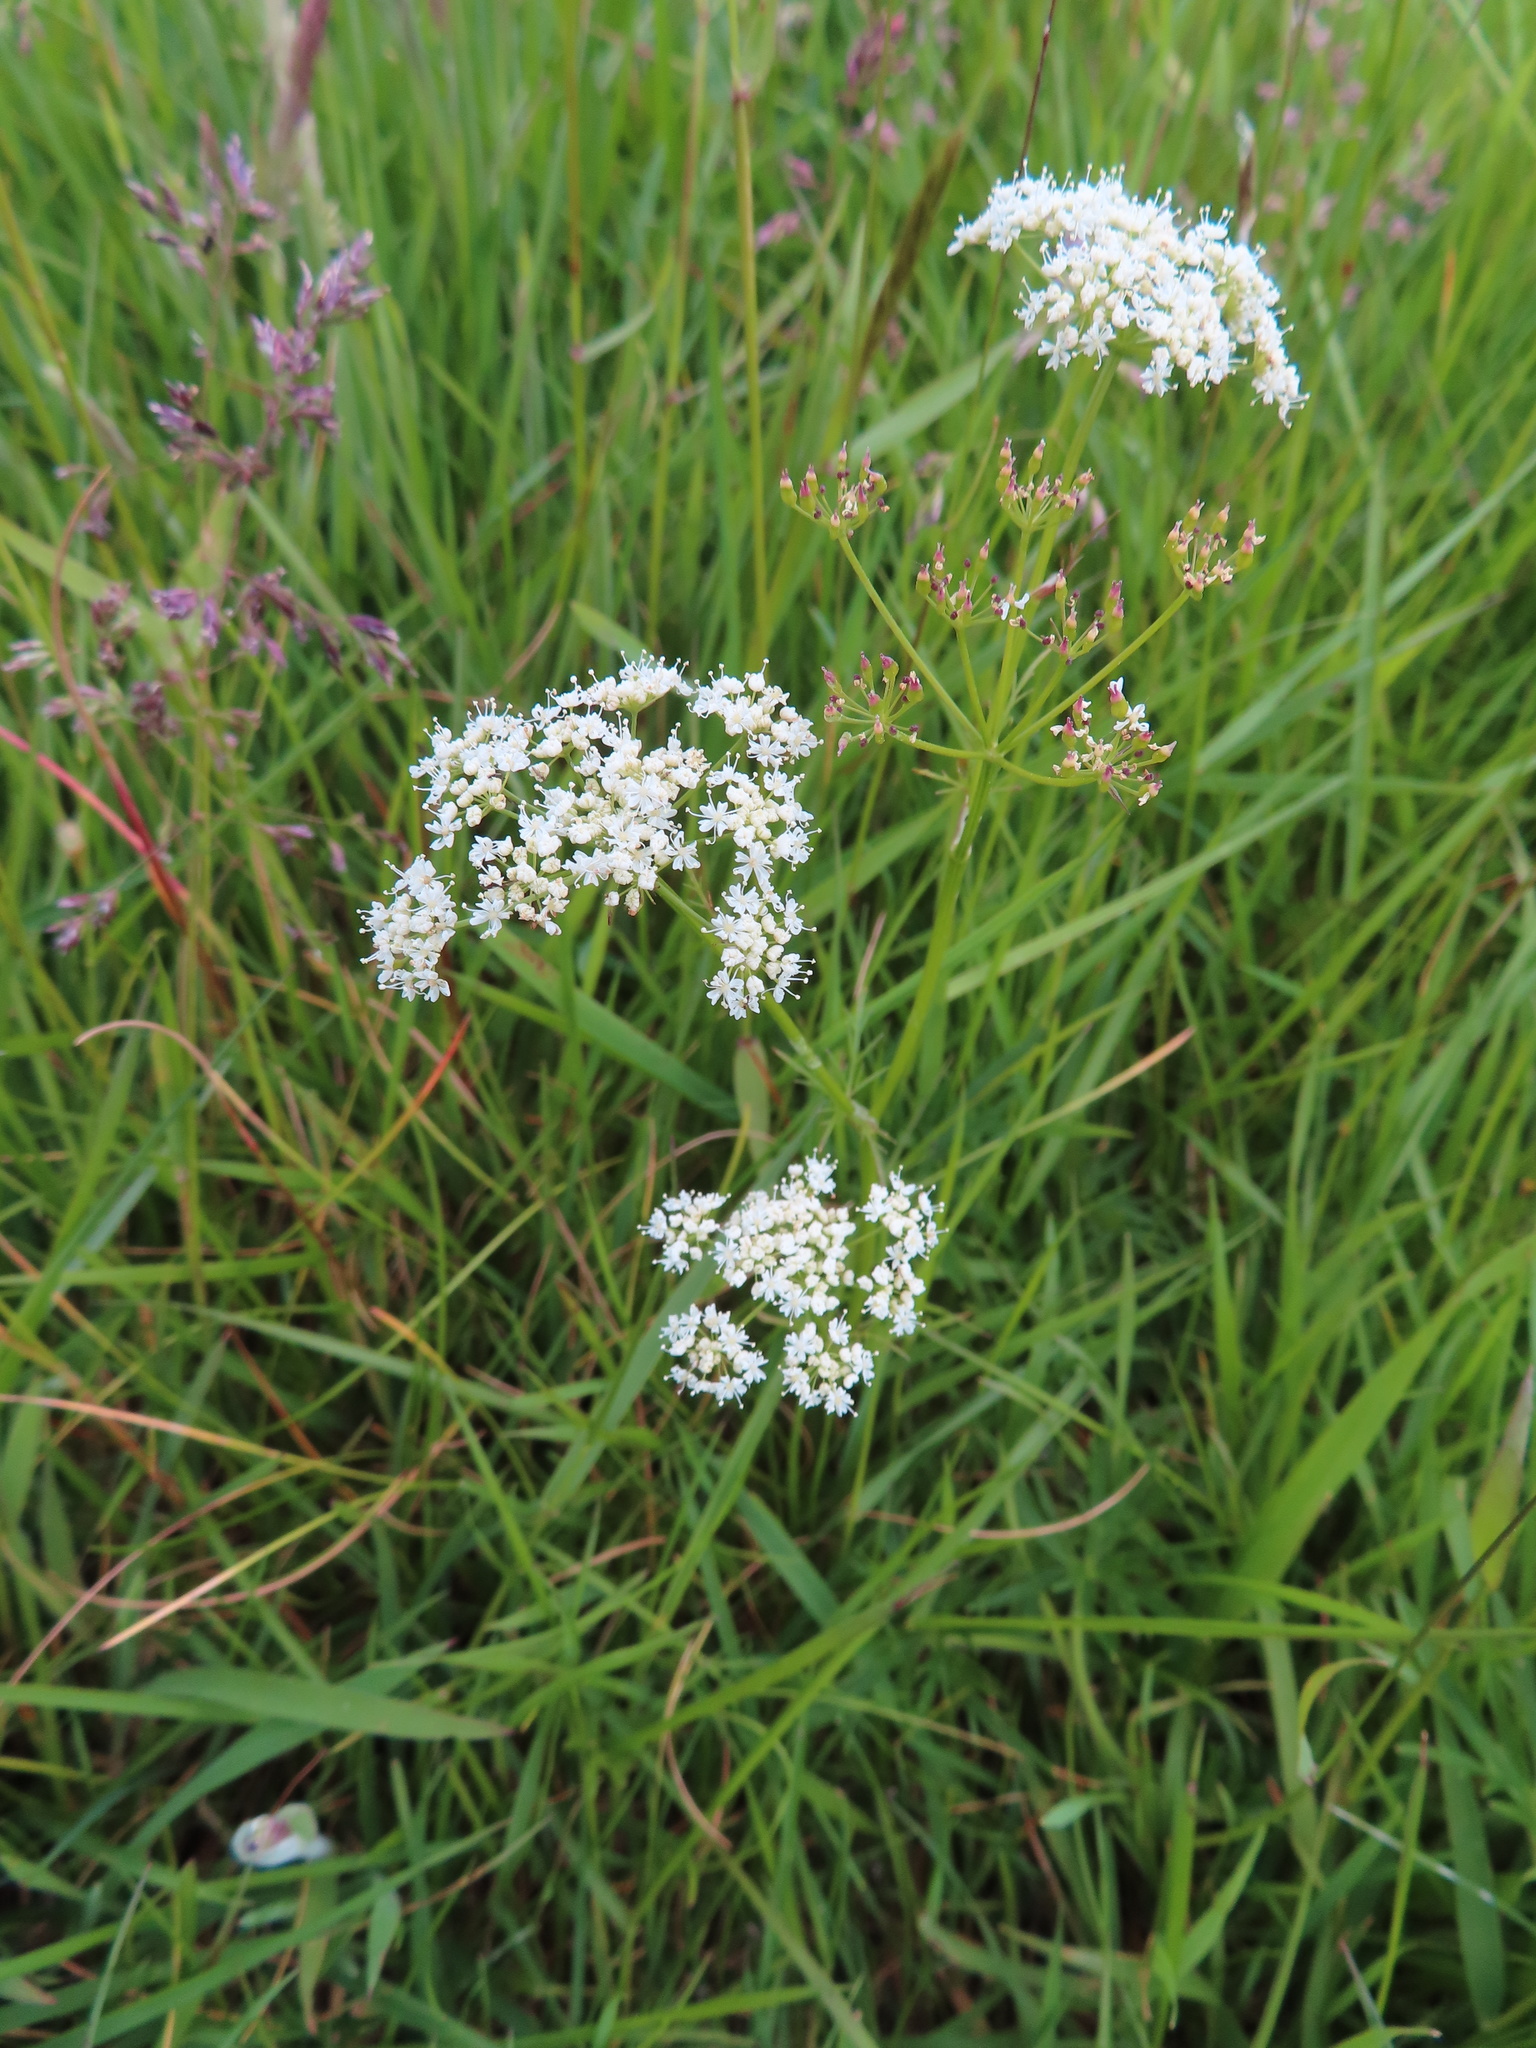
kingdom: Plantae
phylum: Tracheophyta
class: Magnoliopsida
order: Apiales
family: Apiaceae
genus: Conopodium
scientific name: Conopodium majus
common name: Pignut
